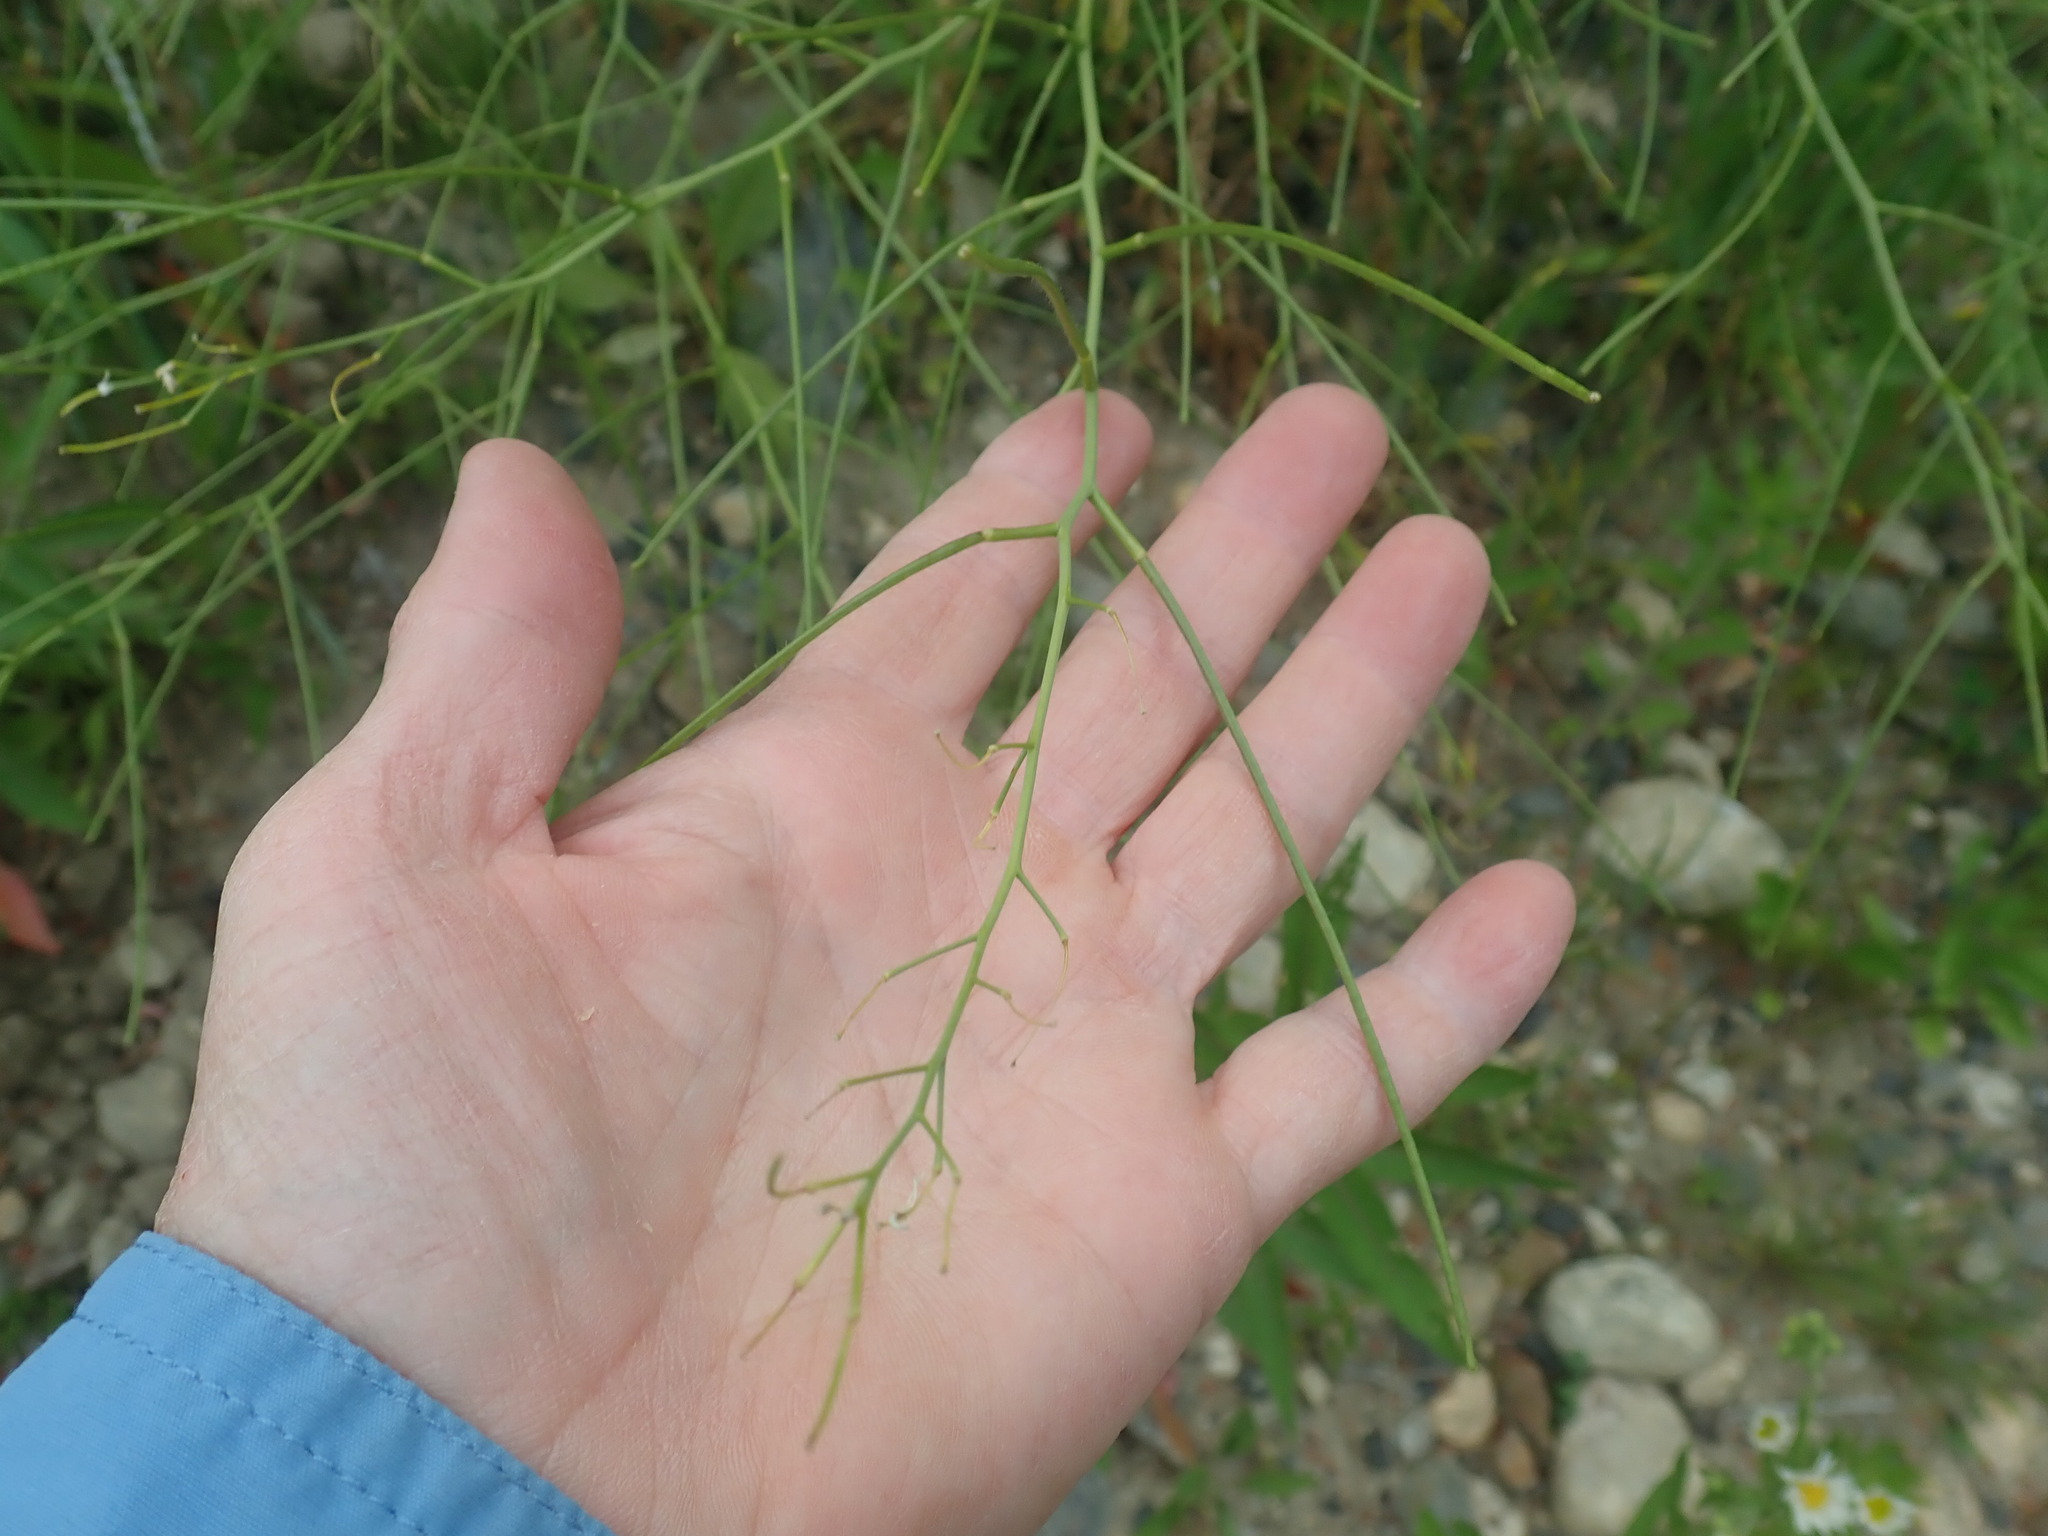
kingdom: Plantae
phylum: Tracheophyta
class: Liliopsida
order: Asparagales
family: Asparagaceae
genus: Asparagus
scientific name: Asparagus officinalis
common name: Garden asparagus
